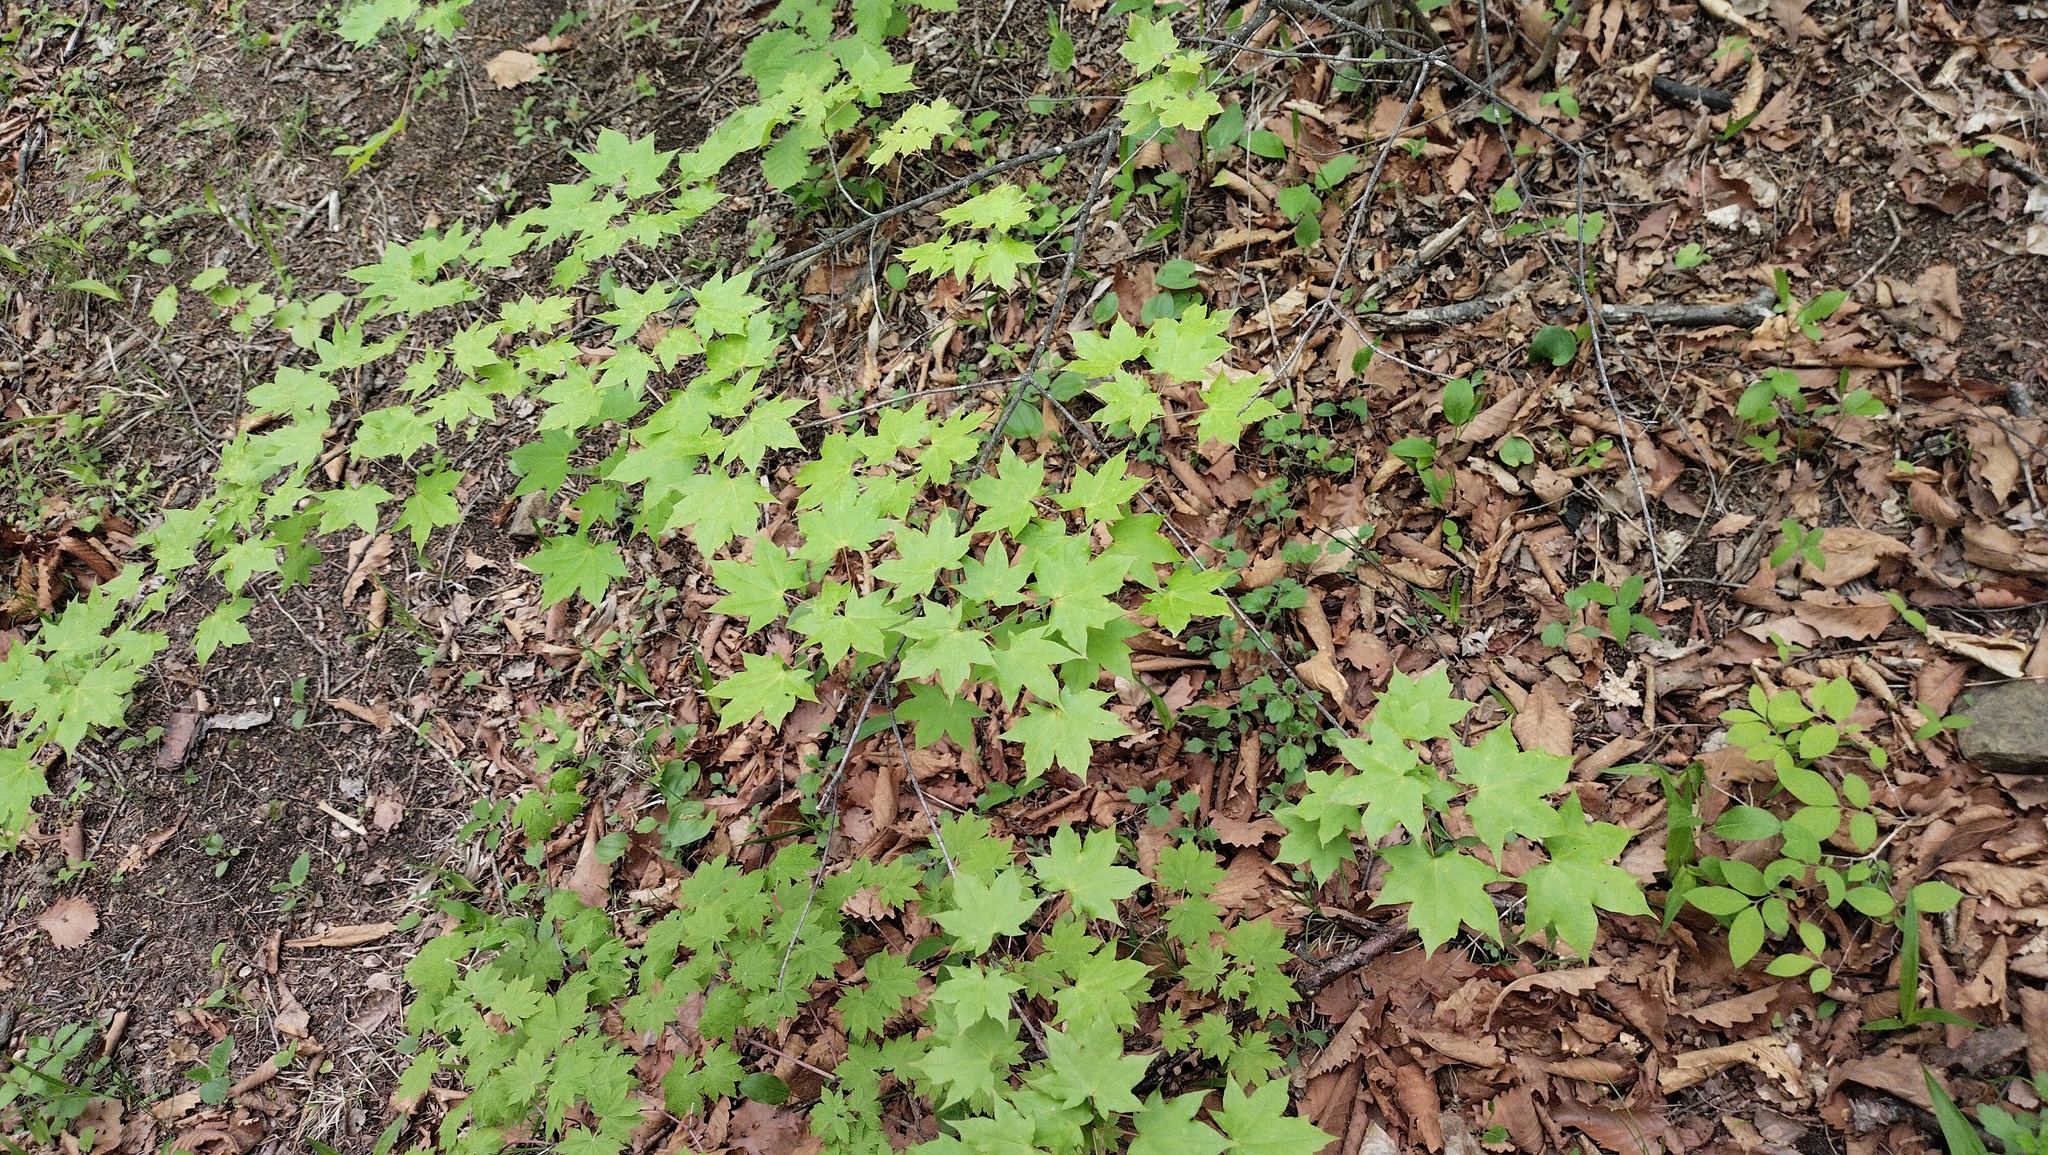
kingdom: Plantae
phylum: Tracheophyta
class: Magnoliopsida
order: Sapindales
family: Sapindaceae
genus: Acer
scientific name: Acer pictum
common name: The painted maple
